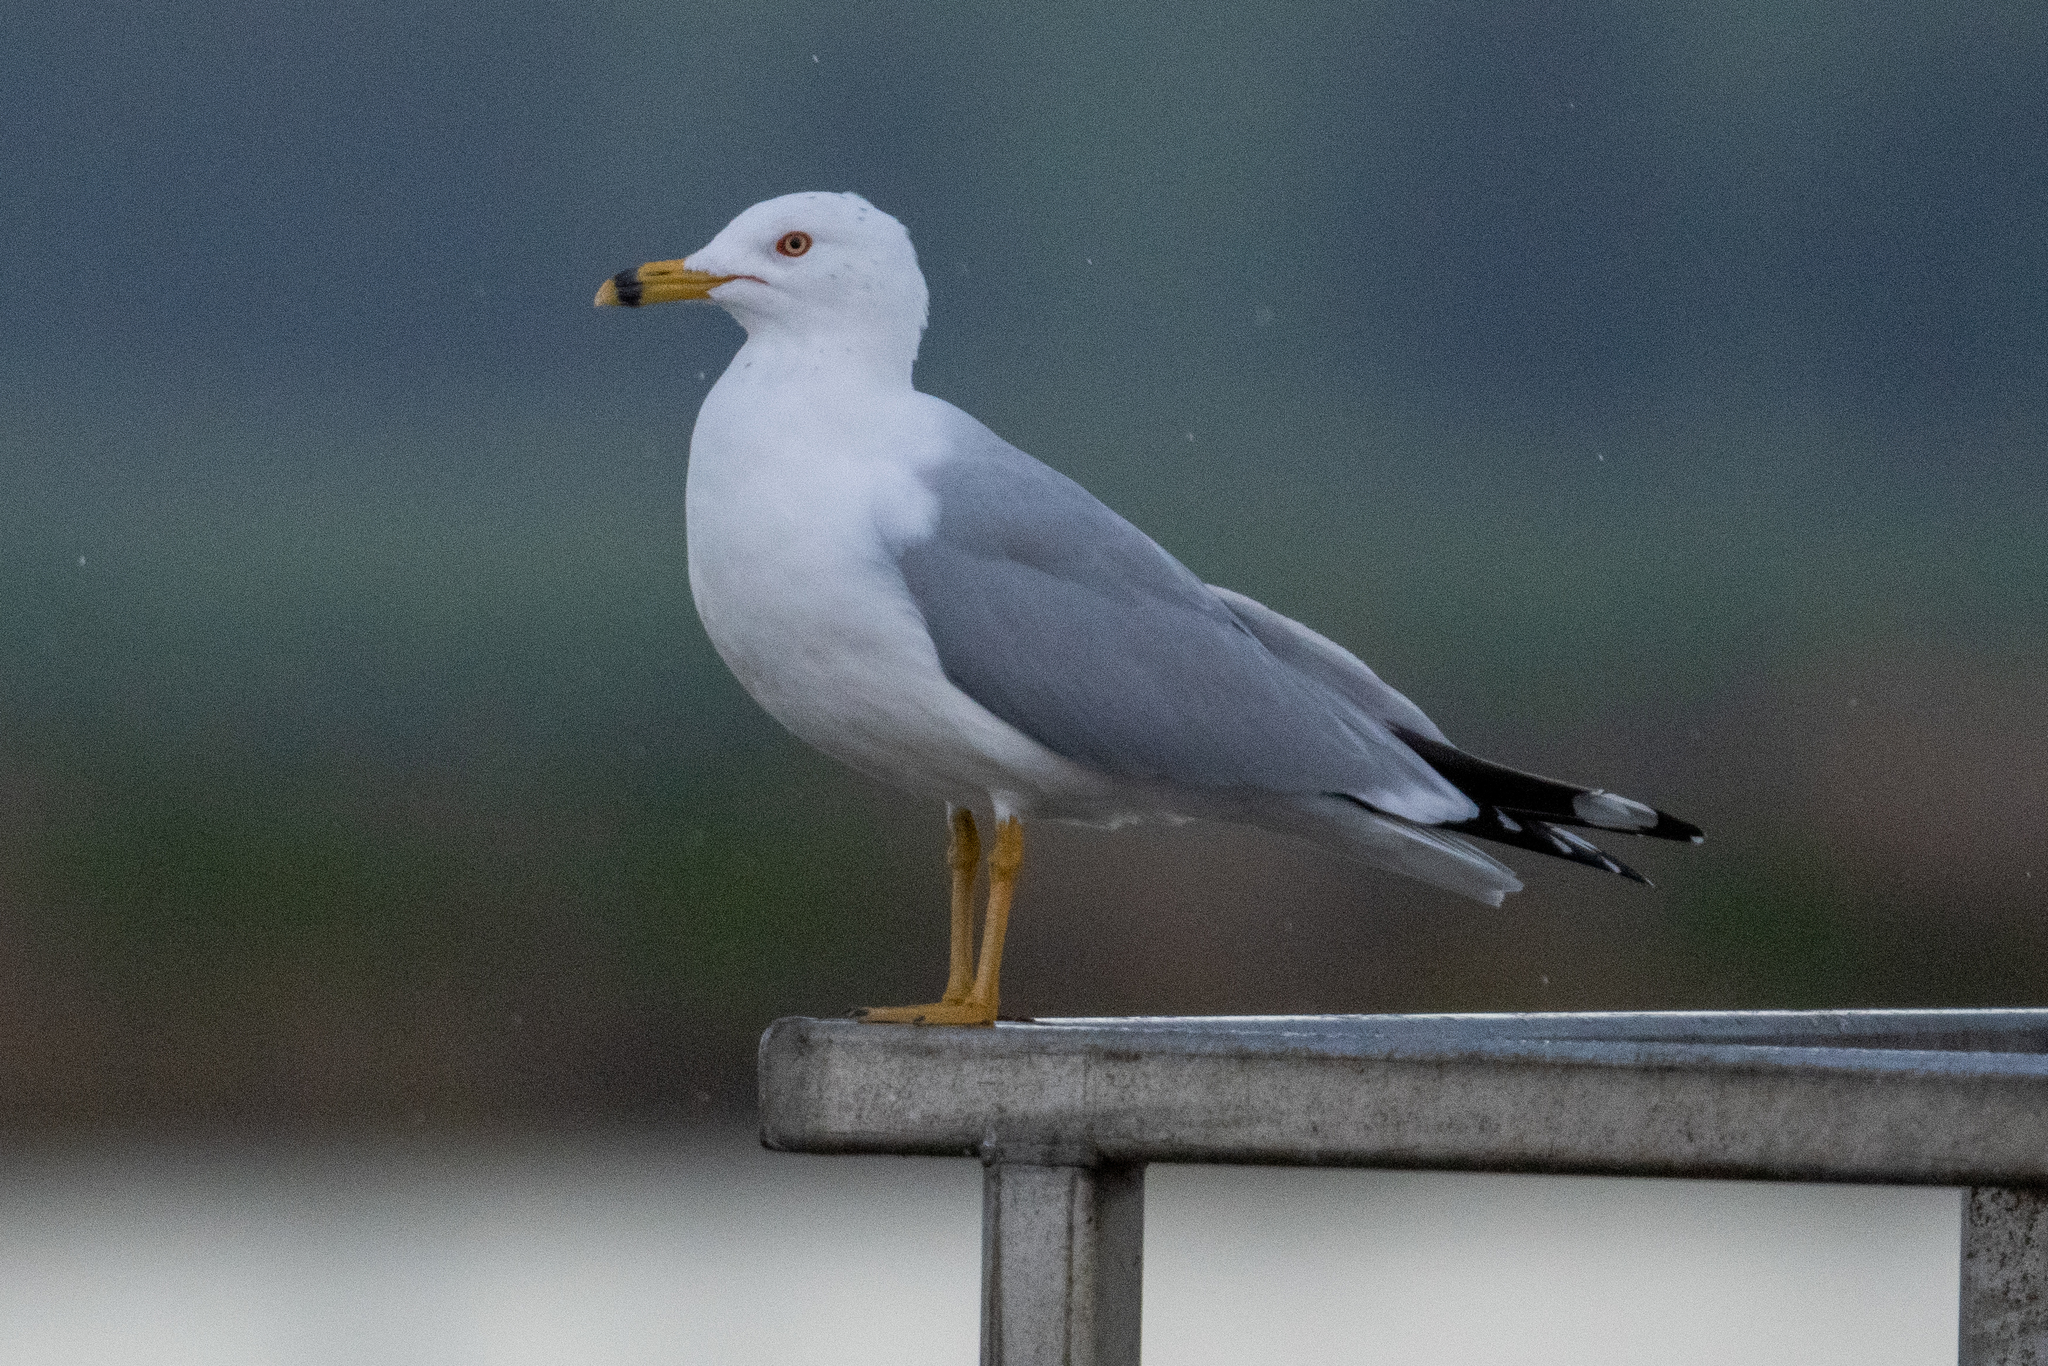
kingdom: Animalia
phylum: Chordata
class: Aves
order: Charadriiformes
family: Laridae
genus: Larus
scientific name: Larus delawarensis
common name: Ring-billed gull
